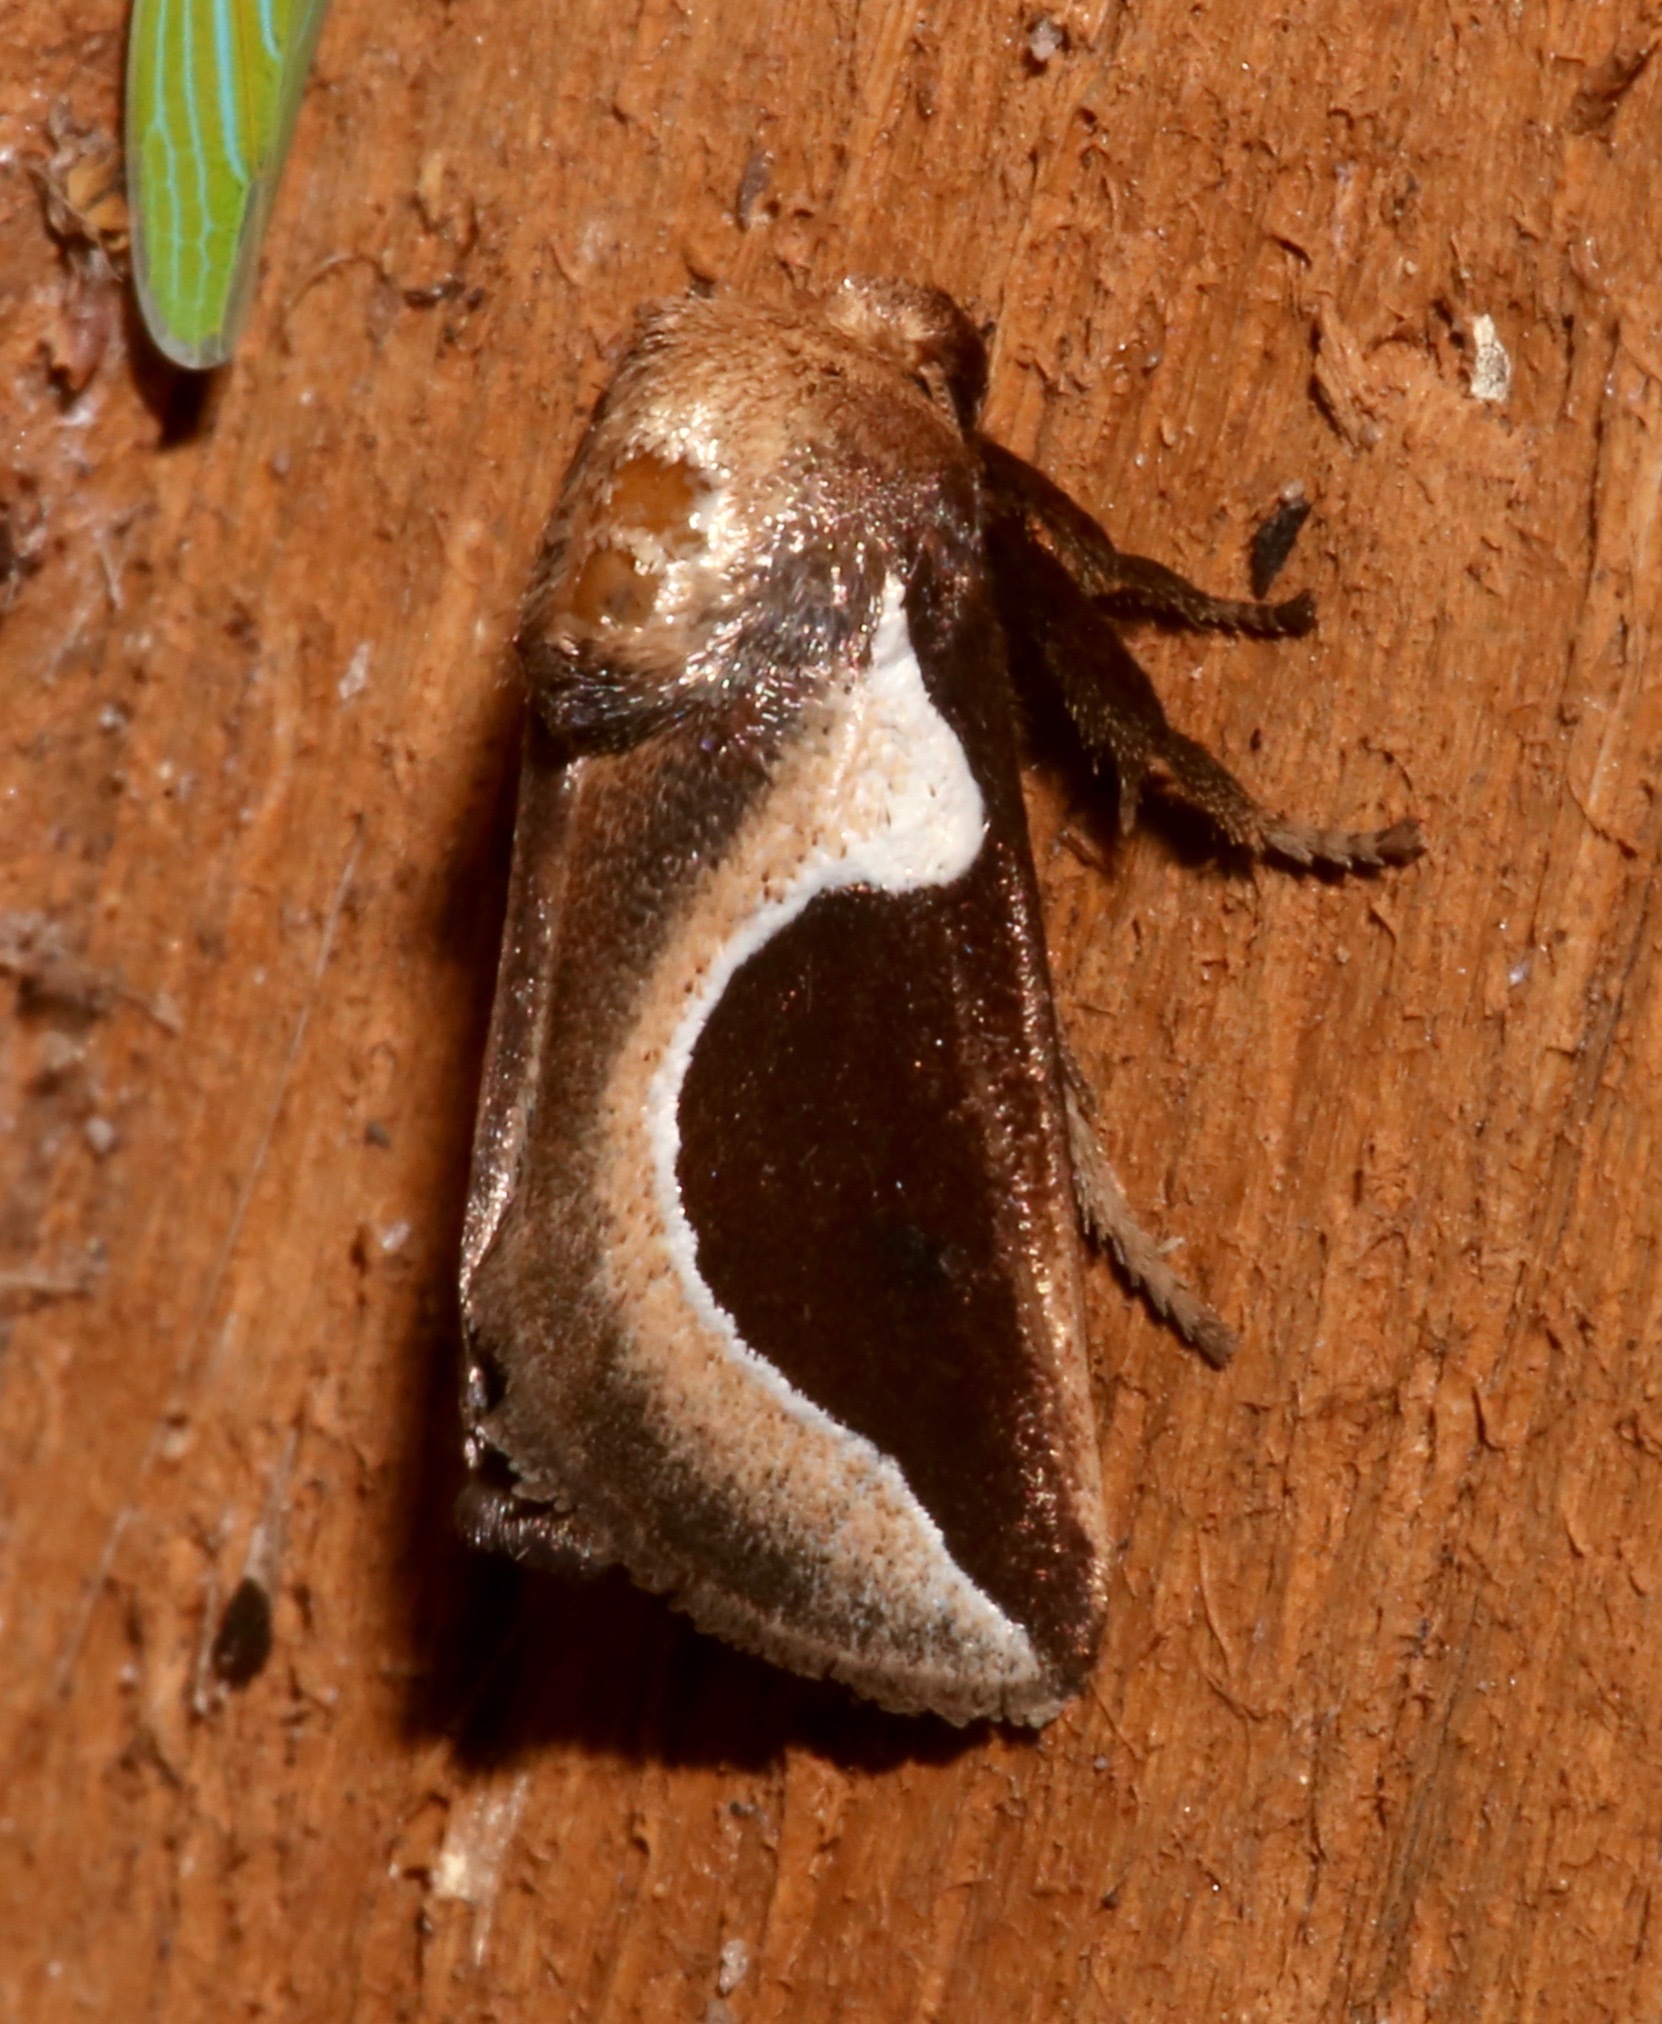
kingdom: Animalia
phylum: Arthropoda
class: Insecta
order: Lepidoptera
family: Limacodidae
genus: Prolimacodes
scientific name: Prolimacodes badia
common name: Skiff moth
